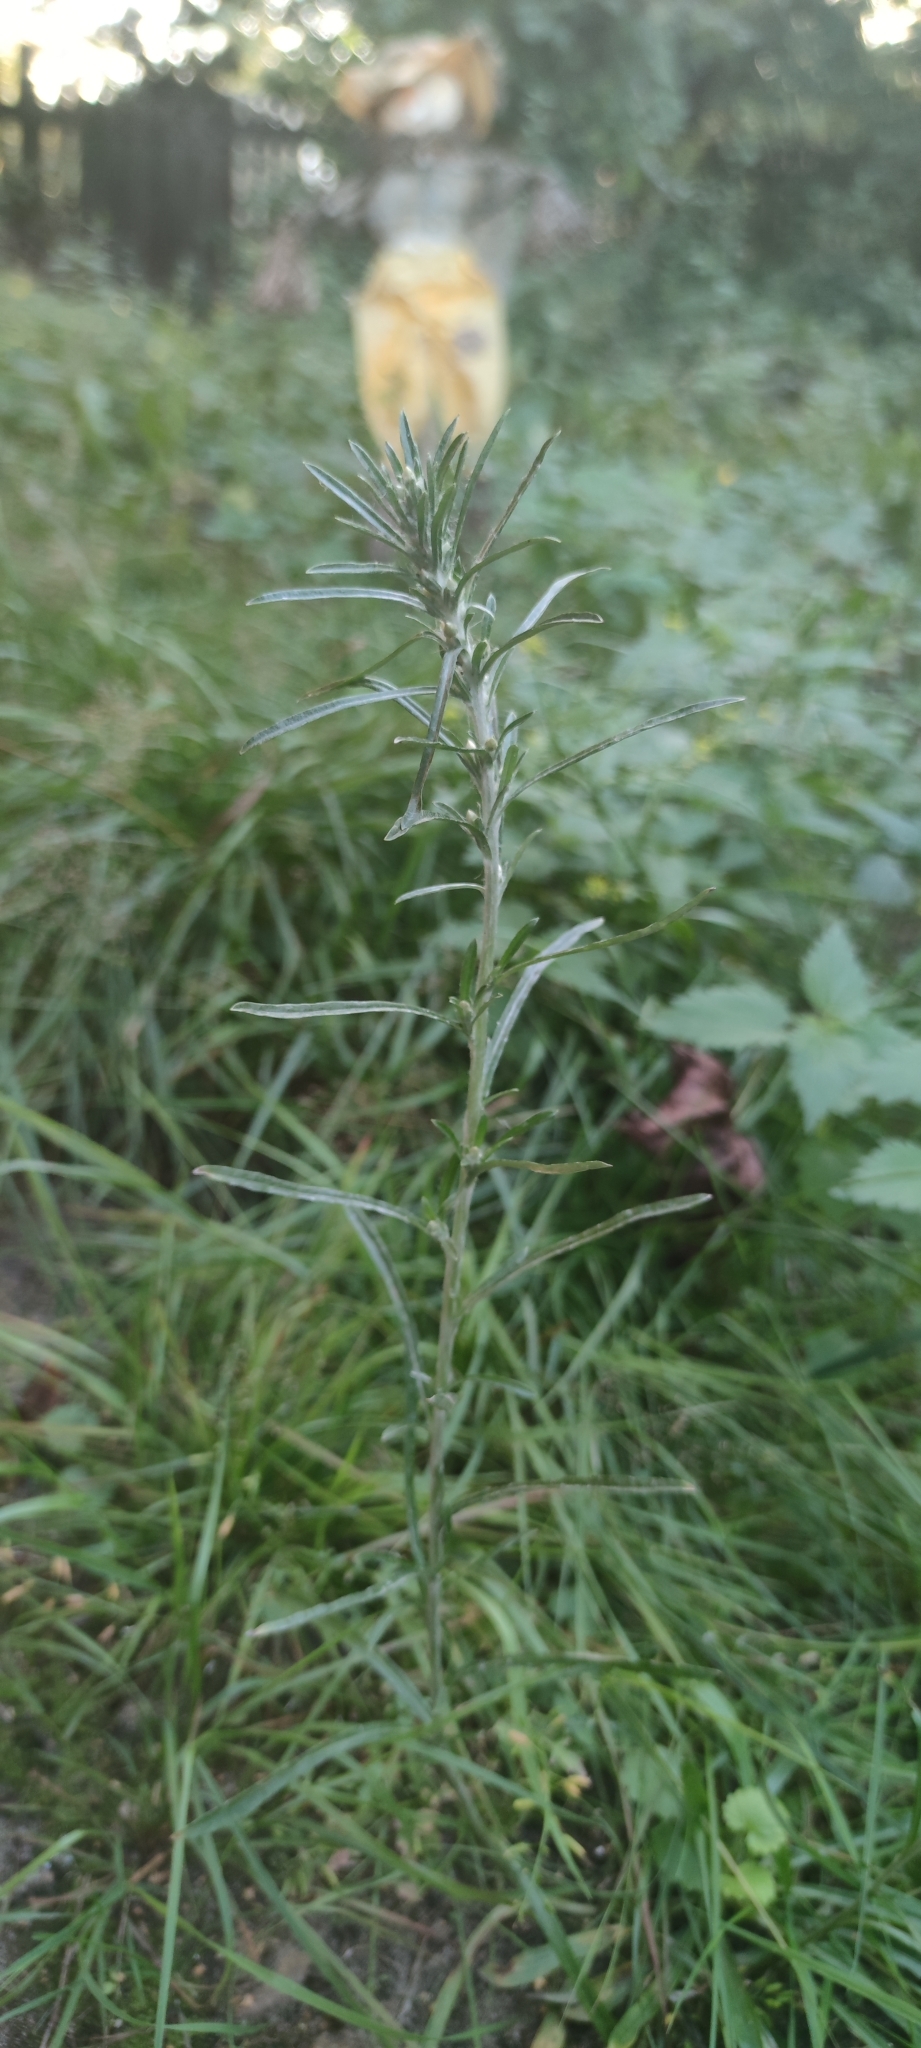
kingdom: Plantae
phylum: Tracheophyta
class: Magnoliopsida
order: Asterales
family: Asteraceae
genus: Omalotheca
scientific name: Omalotheca sylvatica
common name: Heath cudweed
